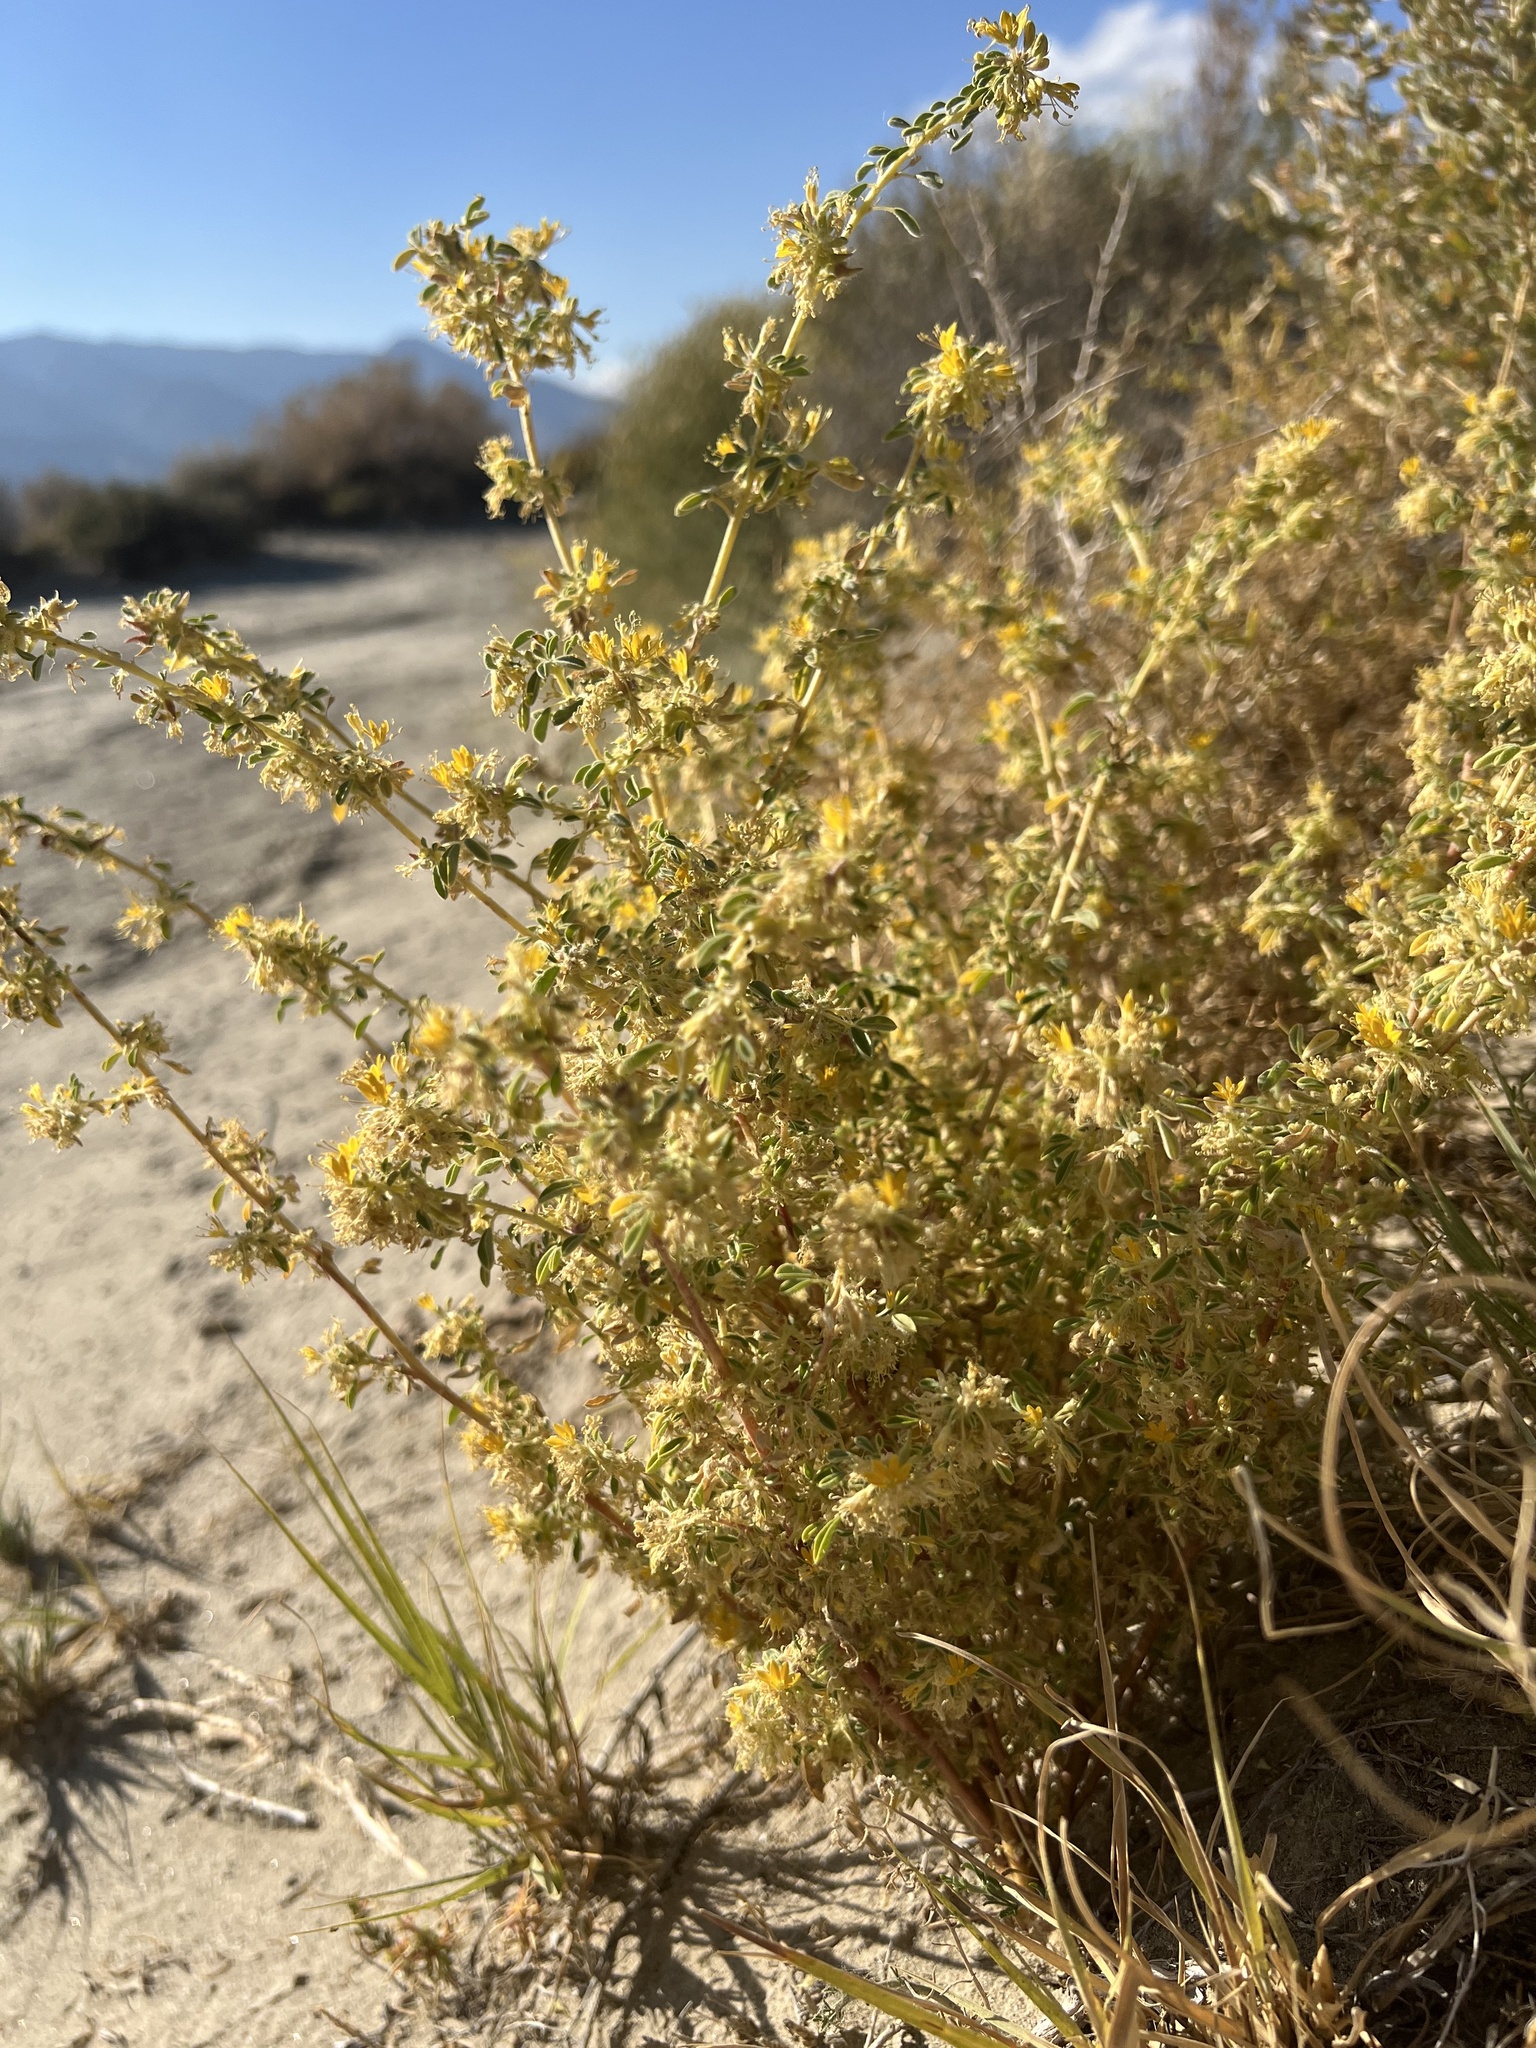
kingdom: Plantae
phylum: Tracheophyta
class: Magnoliopsida
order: Brassicales
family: Cleomaceae
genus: Cleomella
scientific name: Cleomella obtusifolia
